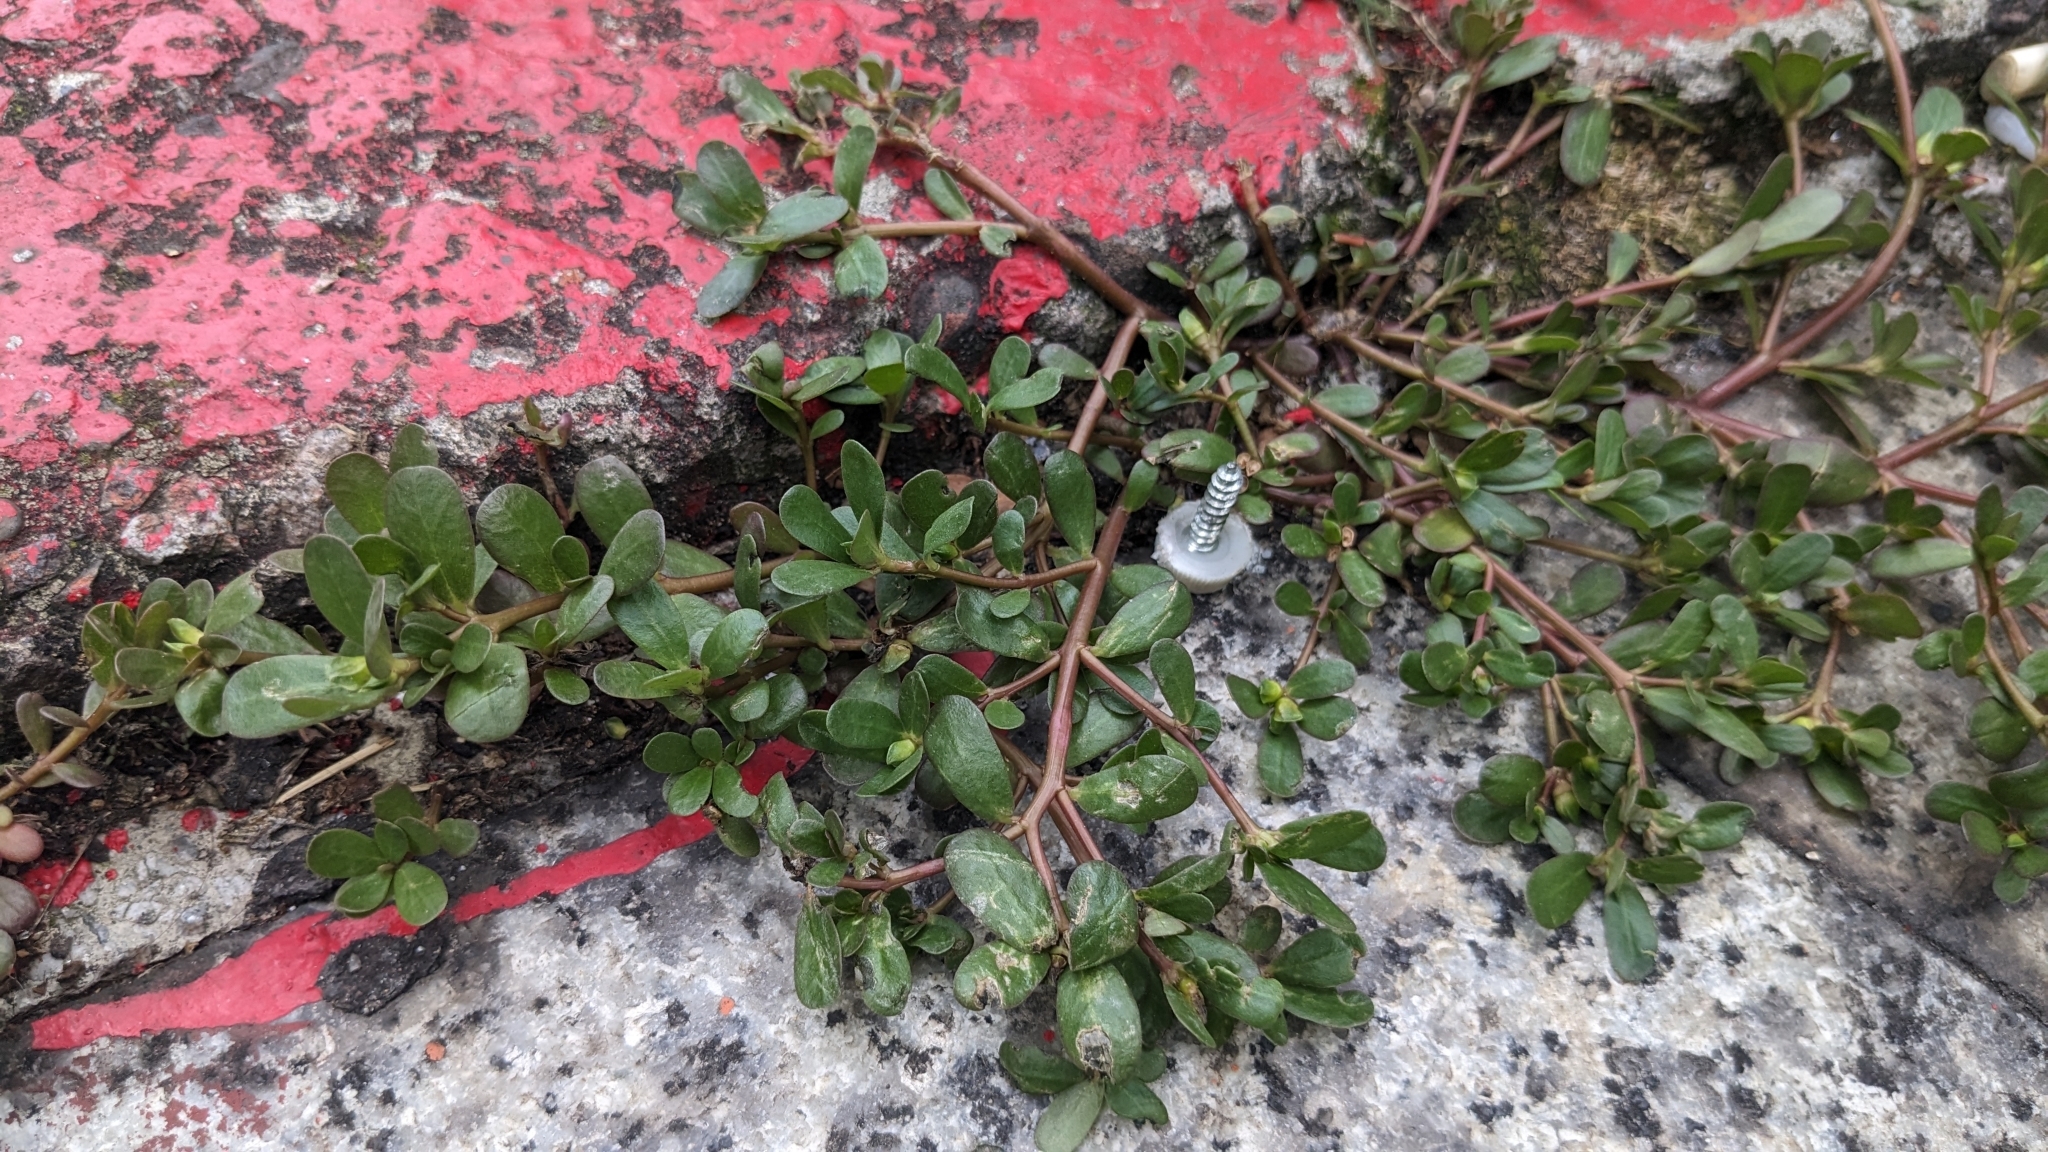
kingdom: Plantae
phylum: Tracheophyta
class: Magnoliopsida
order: Caryophyllales
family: Portulacaceae
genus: Portulaca
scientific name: Portulaca oleracea
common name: Common purslane
